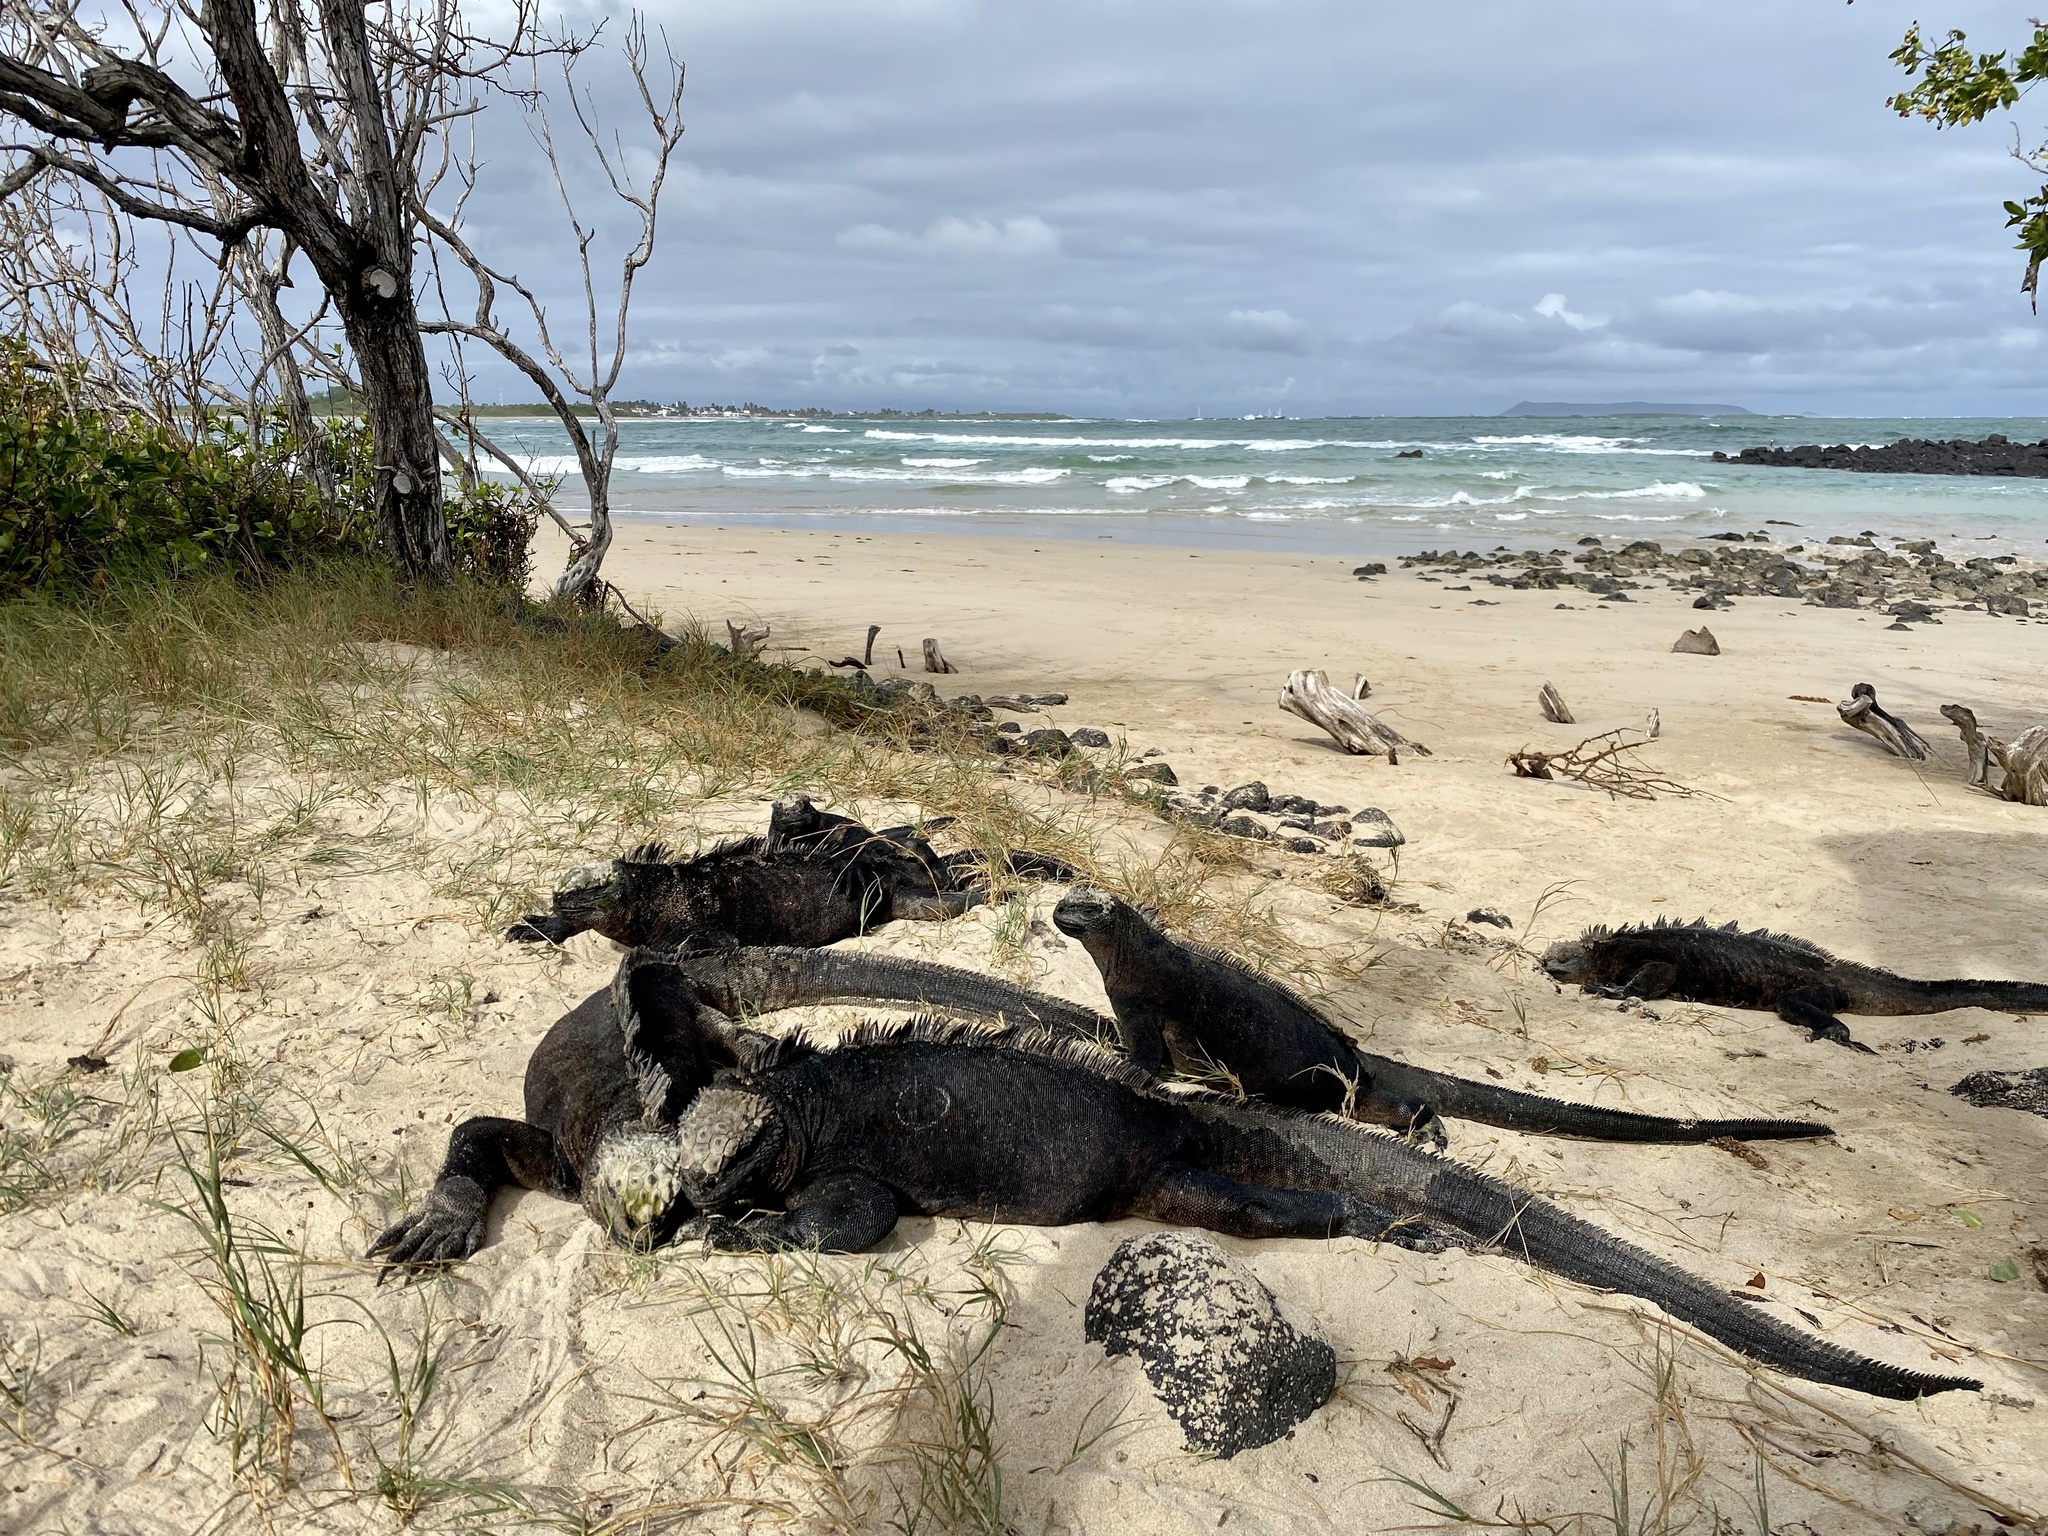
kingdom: Animalia
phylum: Chordata
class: Squamata
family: Iguanidae
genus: Amblyrhynchus
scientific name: Amblyrhynchus cristatus
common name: Marine iguana
